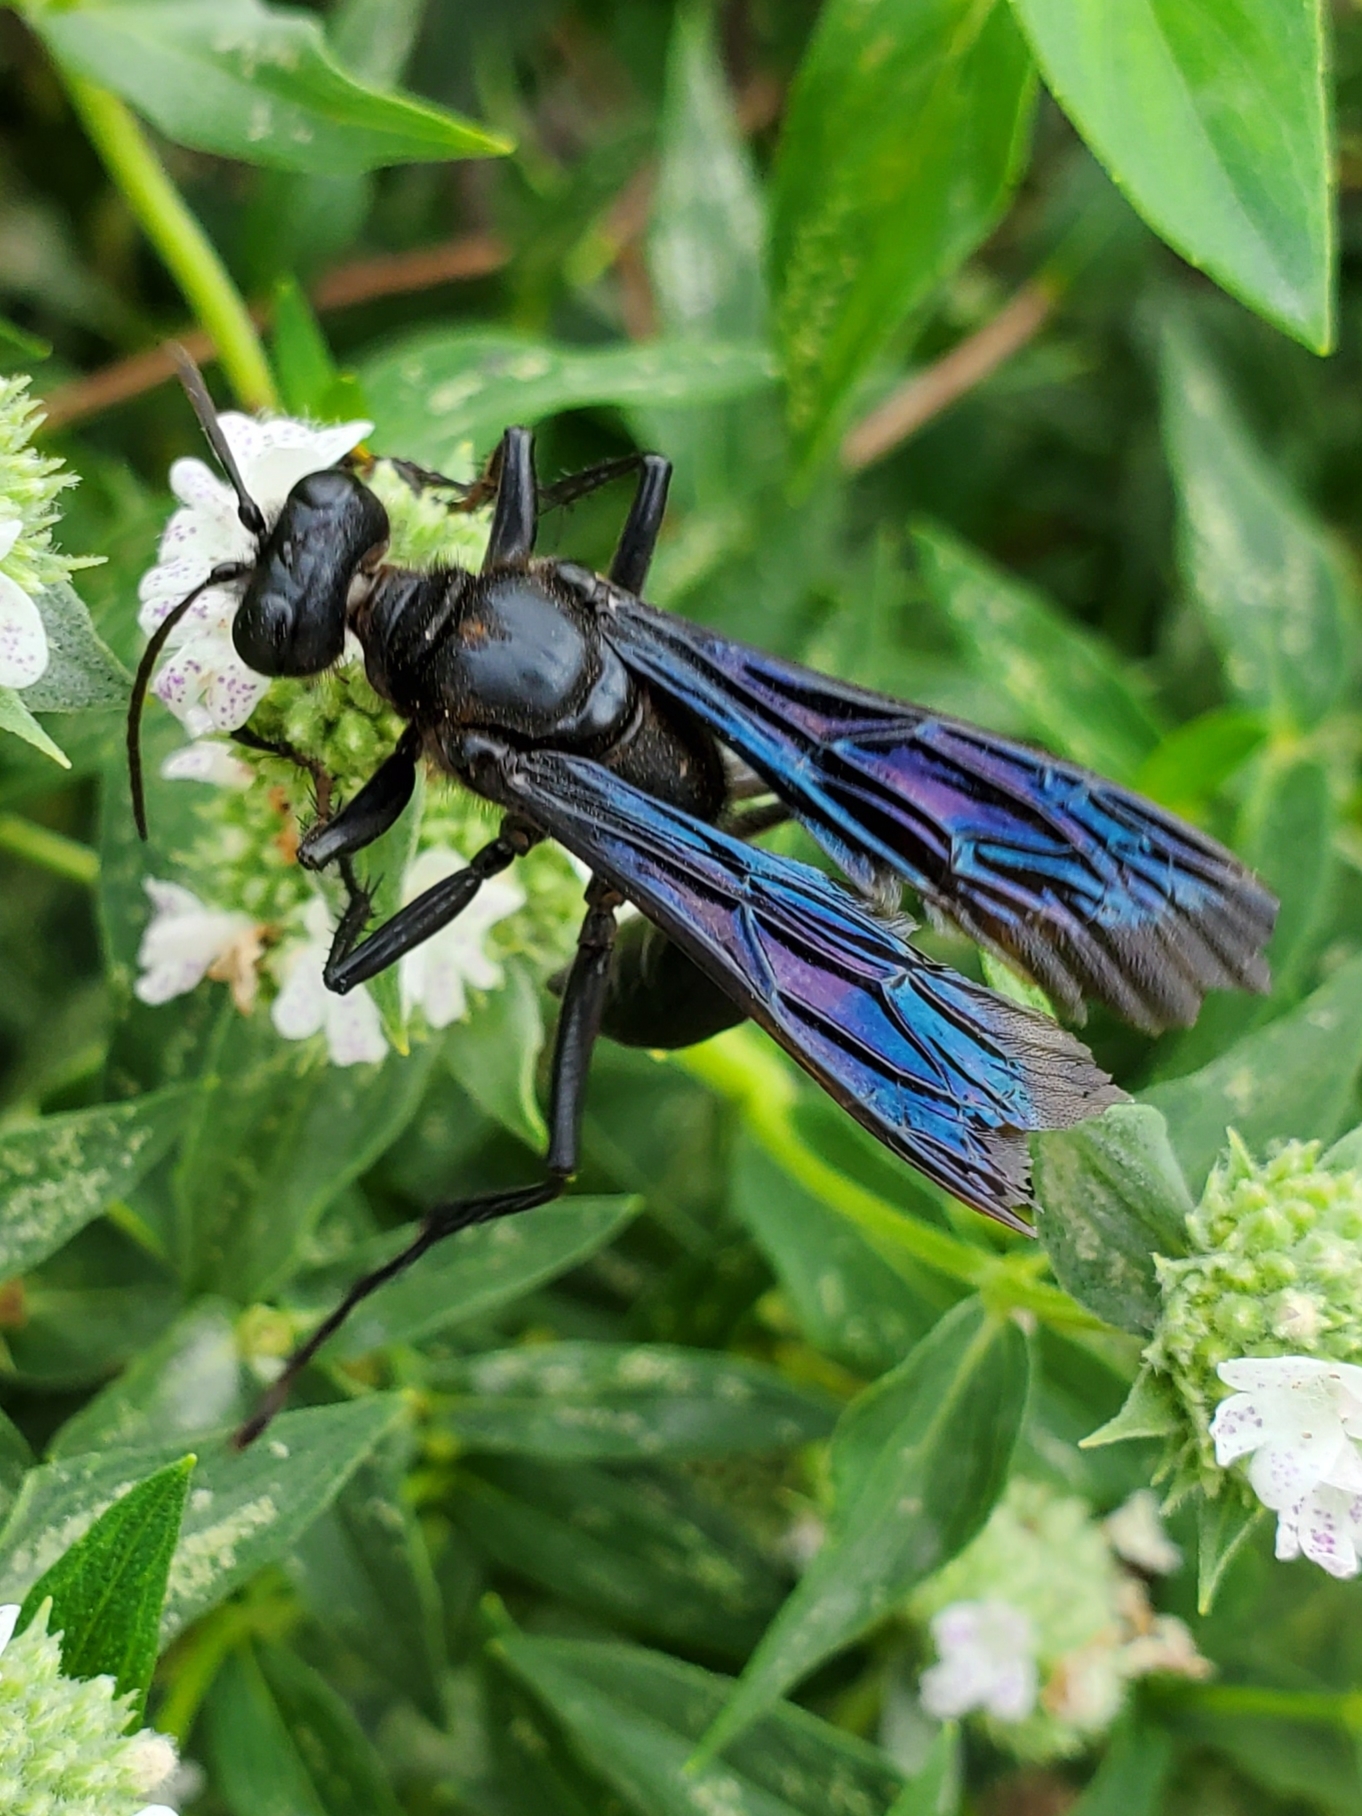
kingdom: Animalia
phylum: Arthropoda
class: Insecta
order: Hymenoptera
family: Sphecidae
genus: Sphex
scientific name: Sphex pensylvanicus
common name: Great black digger wasp
